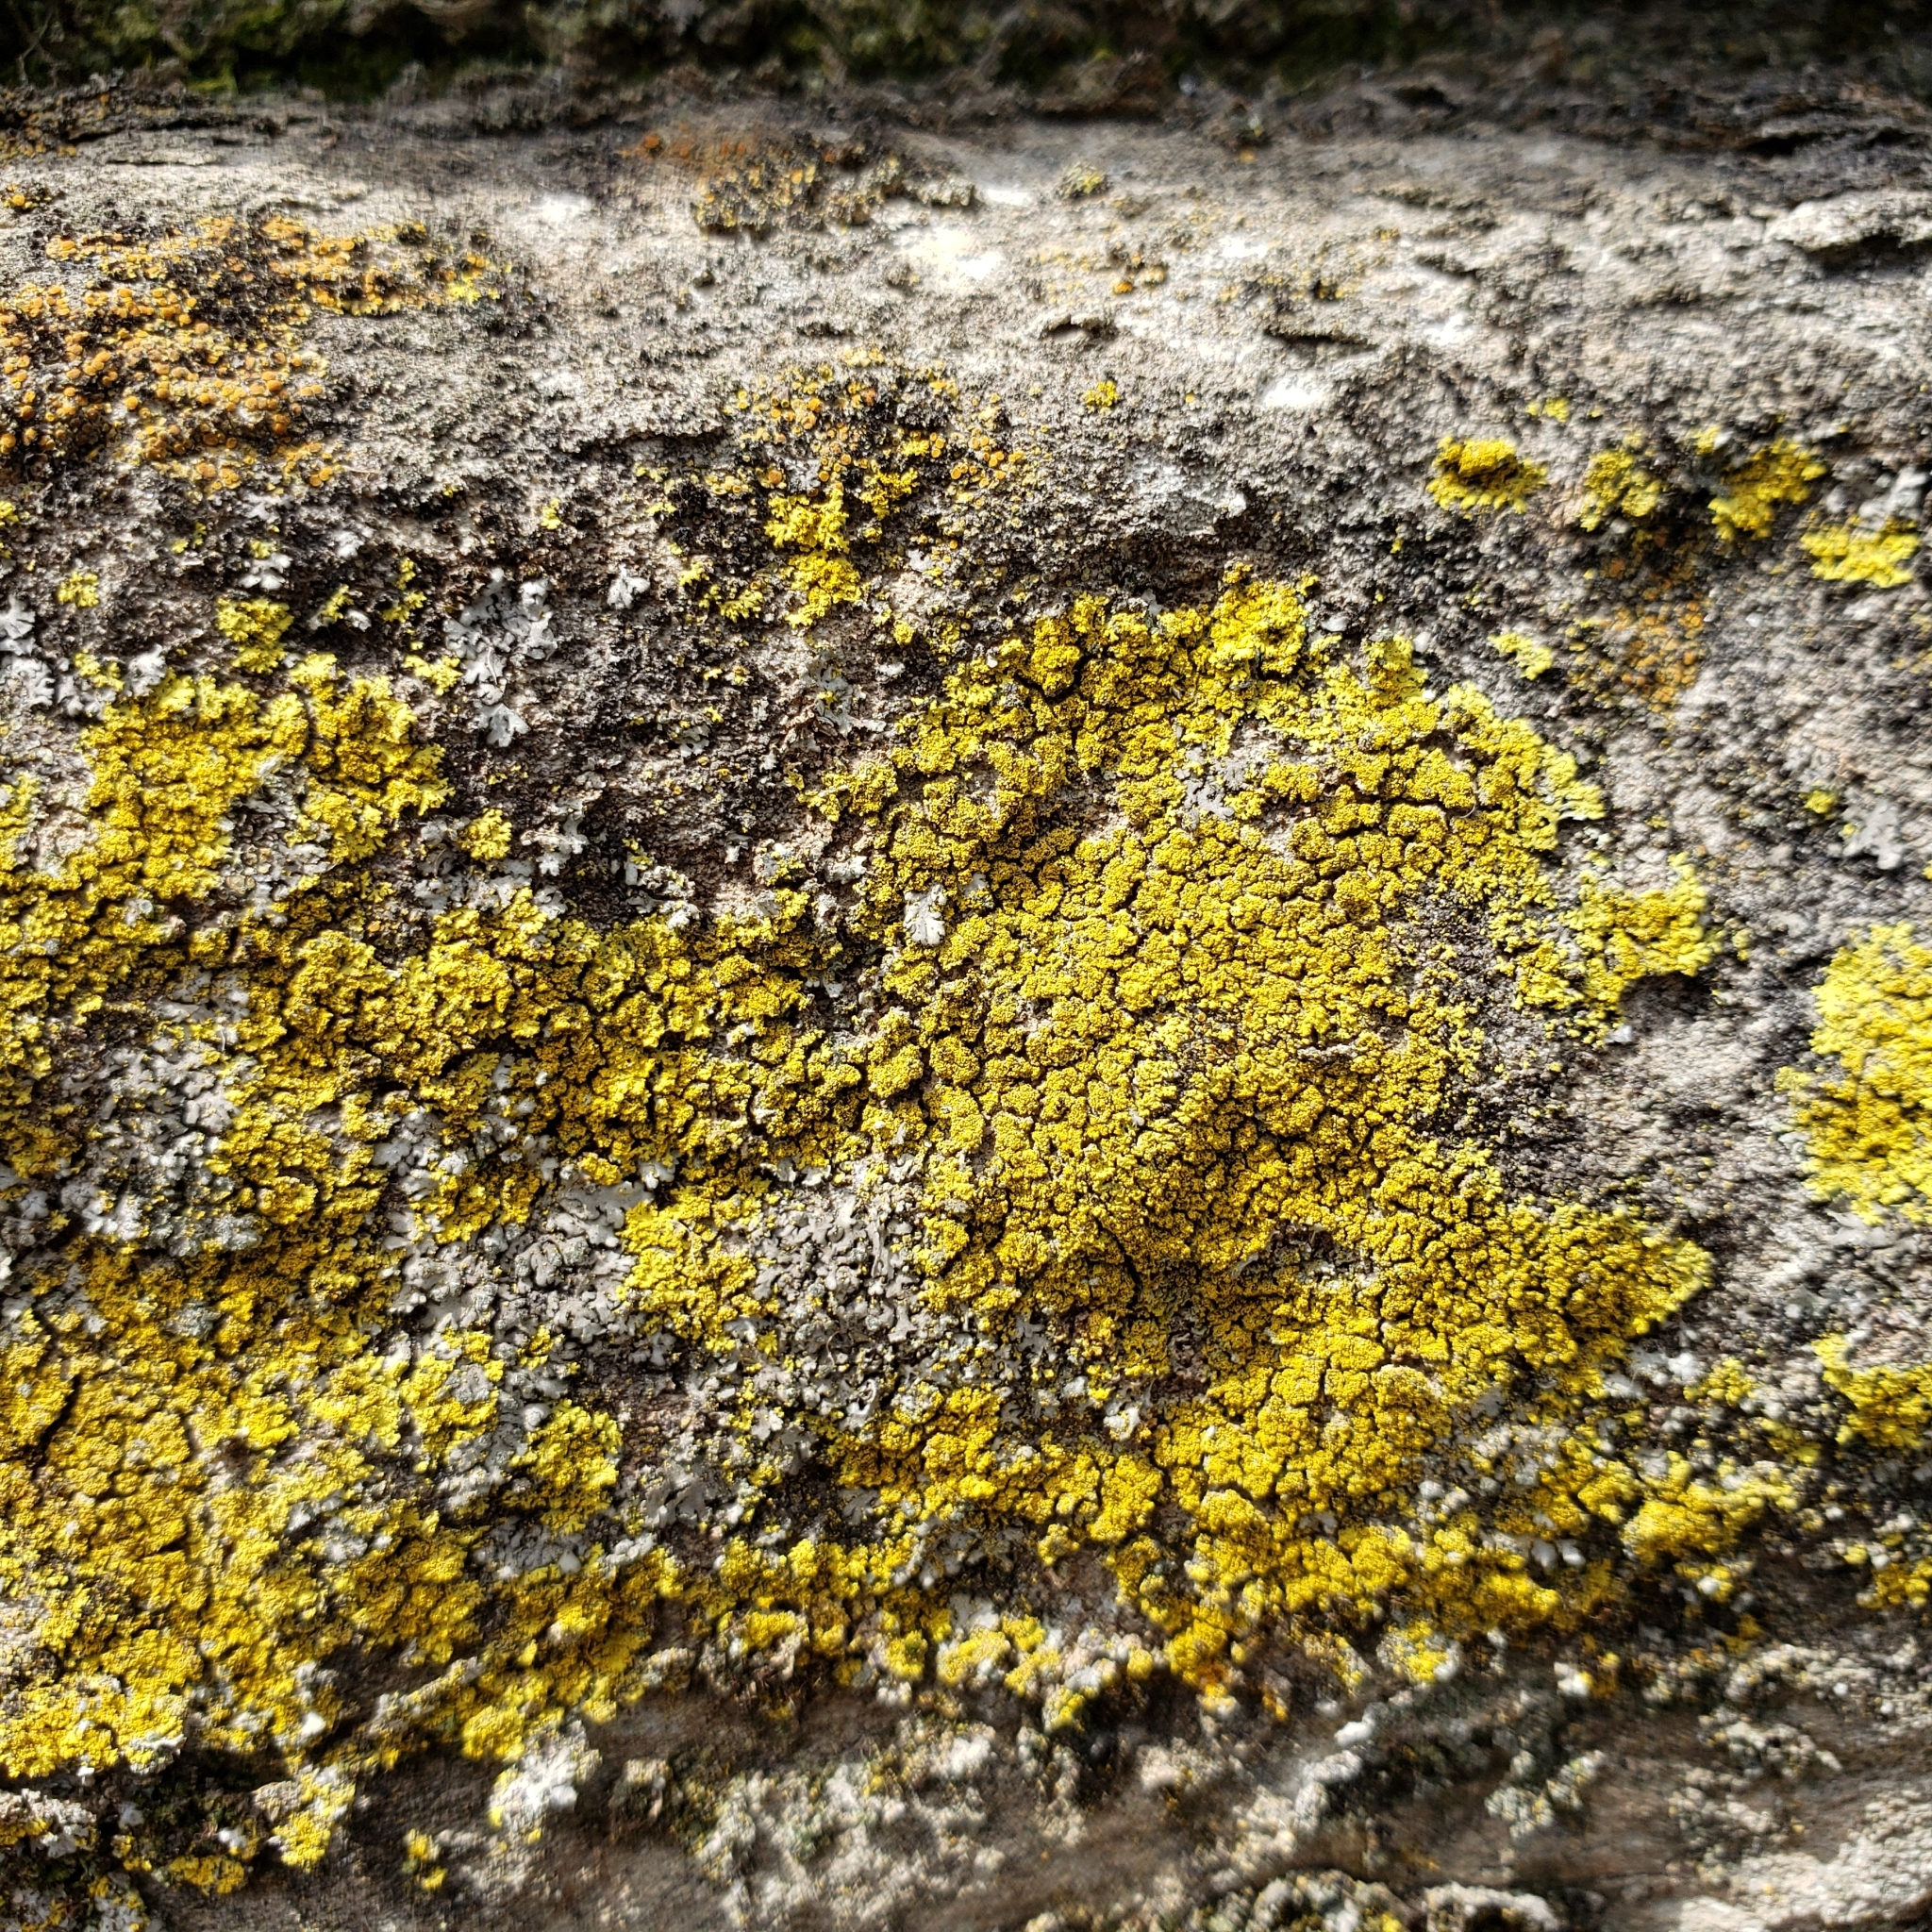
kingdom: Fungi
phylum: Ascomycota
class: Candelariomycetes
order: Candelariales
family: Candelariaceae
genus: Candelariella
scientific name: Candelariella vitellina
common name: Common goldspeck
